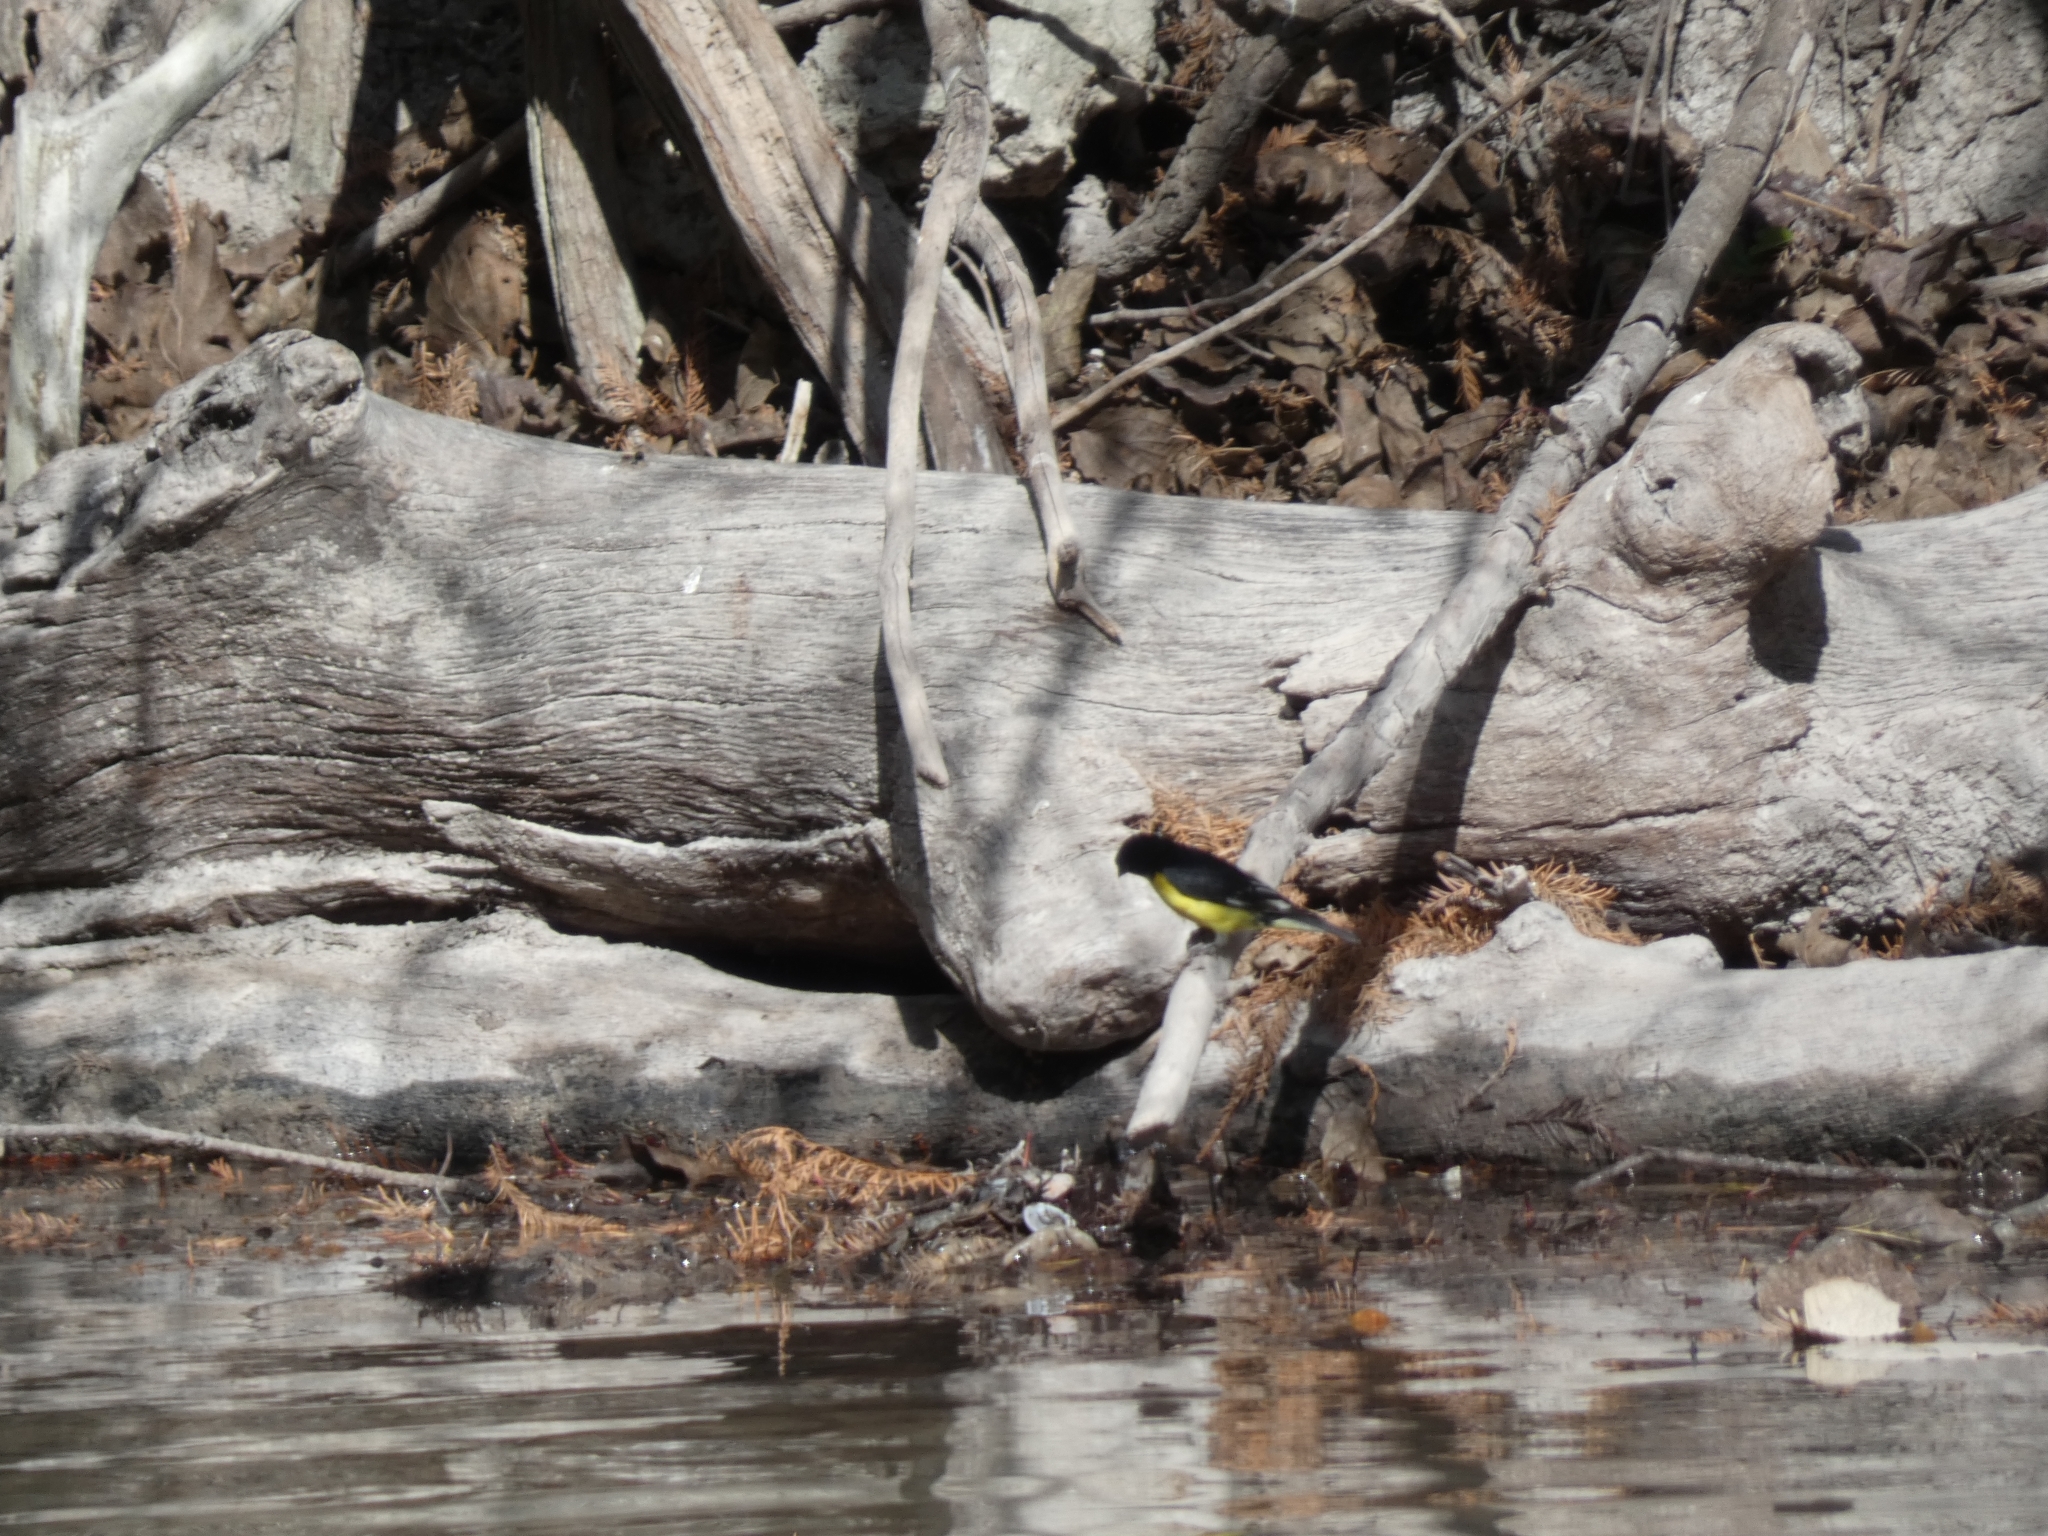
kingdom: Animalia
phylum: Chordata
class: Aves
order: Passeriformes
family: Fringillidae
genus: Spinus
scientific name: Spinus psaltria
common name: Lesser goldfinch
